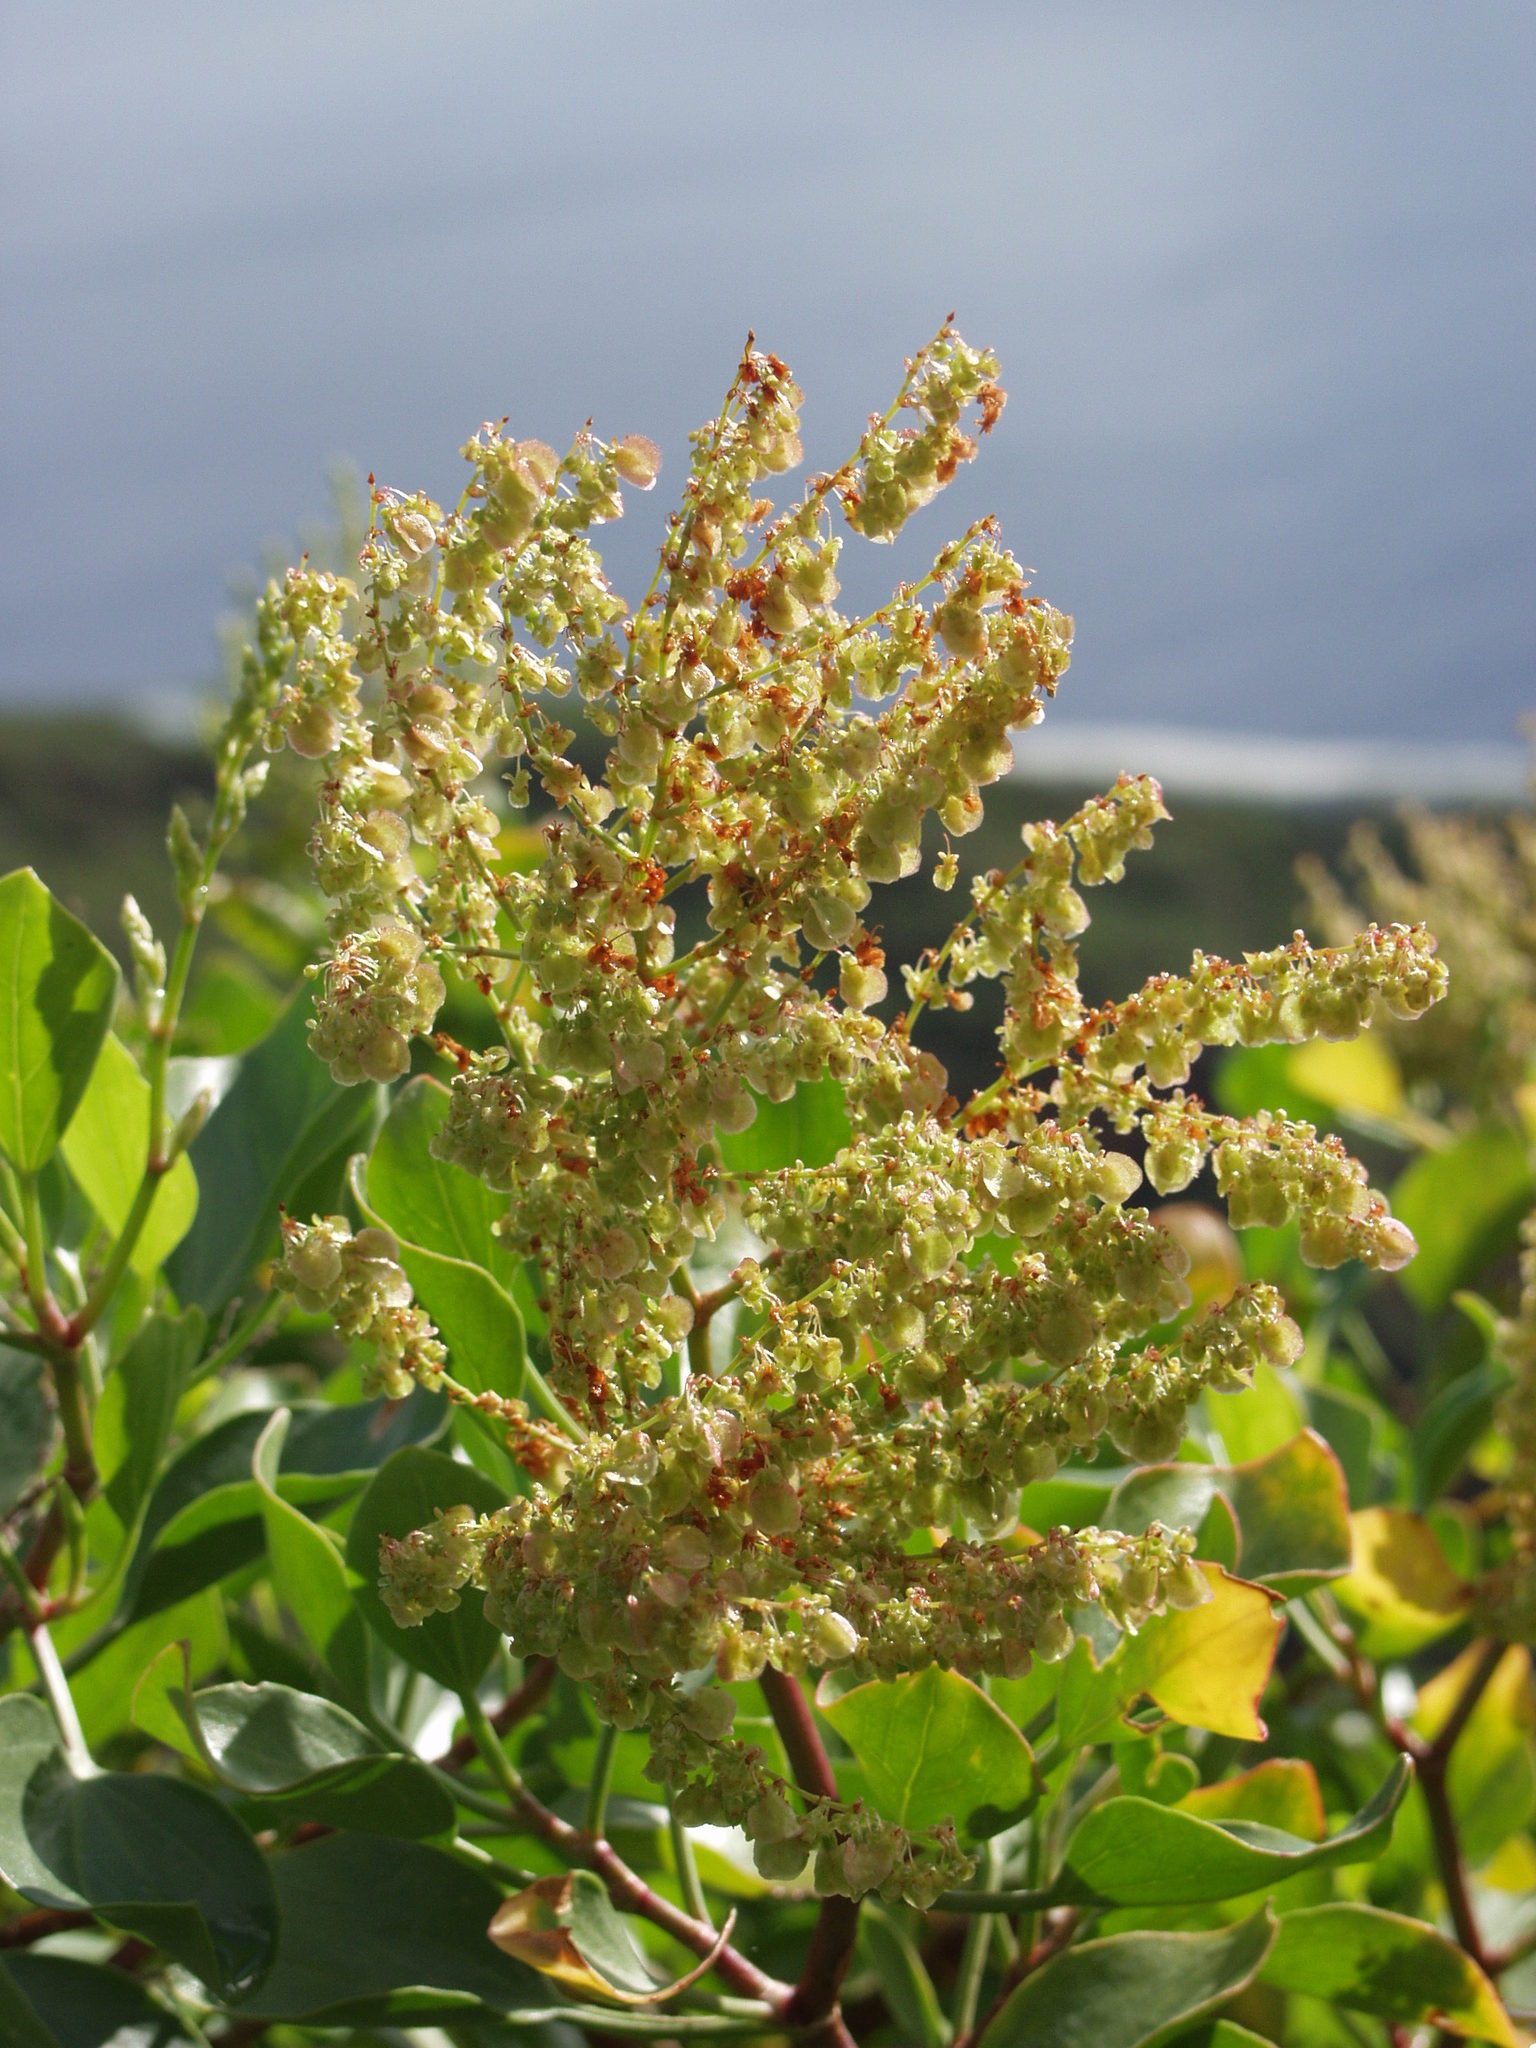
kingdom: Plantae
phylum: Tracheophyta
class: Magnoliopsida
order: Caryophyllales
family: Polygonaceae
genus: Rumex
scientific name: Rumex lunaria
